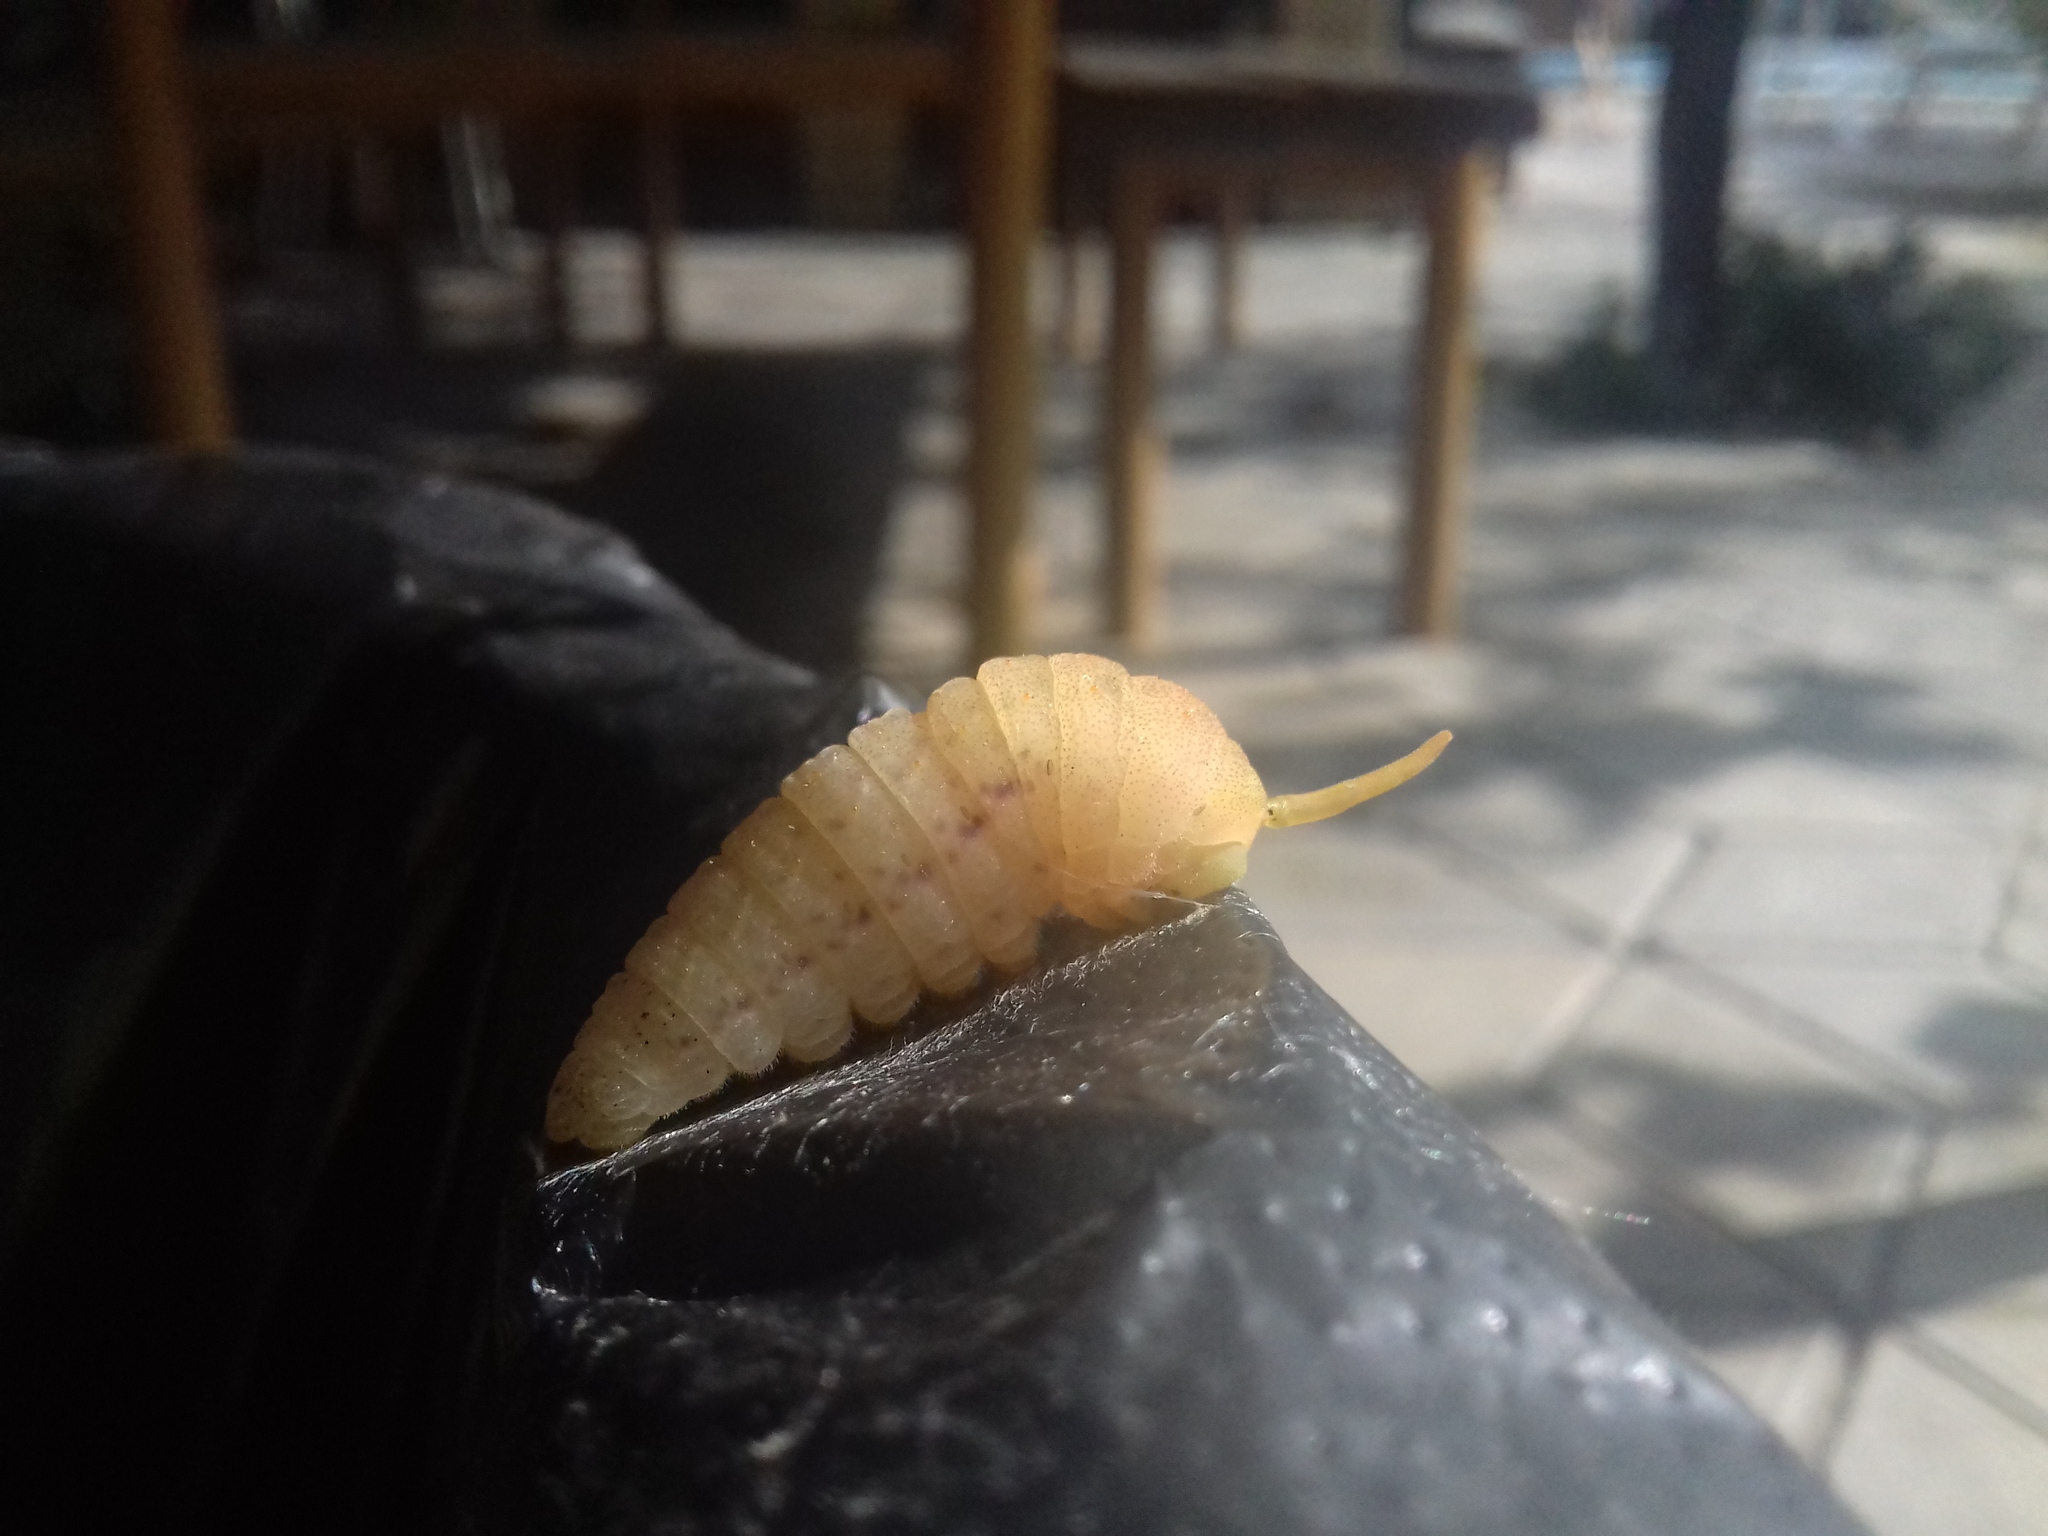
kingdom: Animalia
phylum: Arthropoda
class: Insecta
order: Lepidoptera
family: Papilionidae
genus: Iphiclides
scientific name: Iphiclides podalirius
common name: Scarce swallowtail
